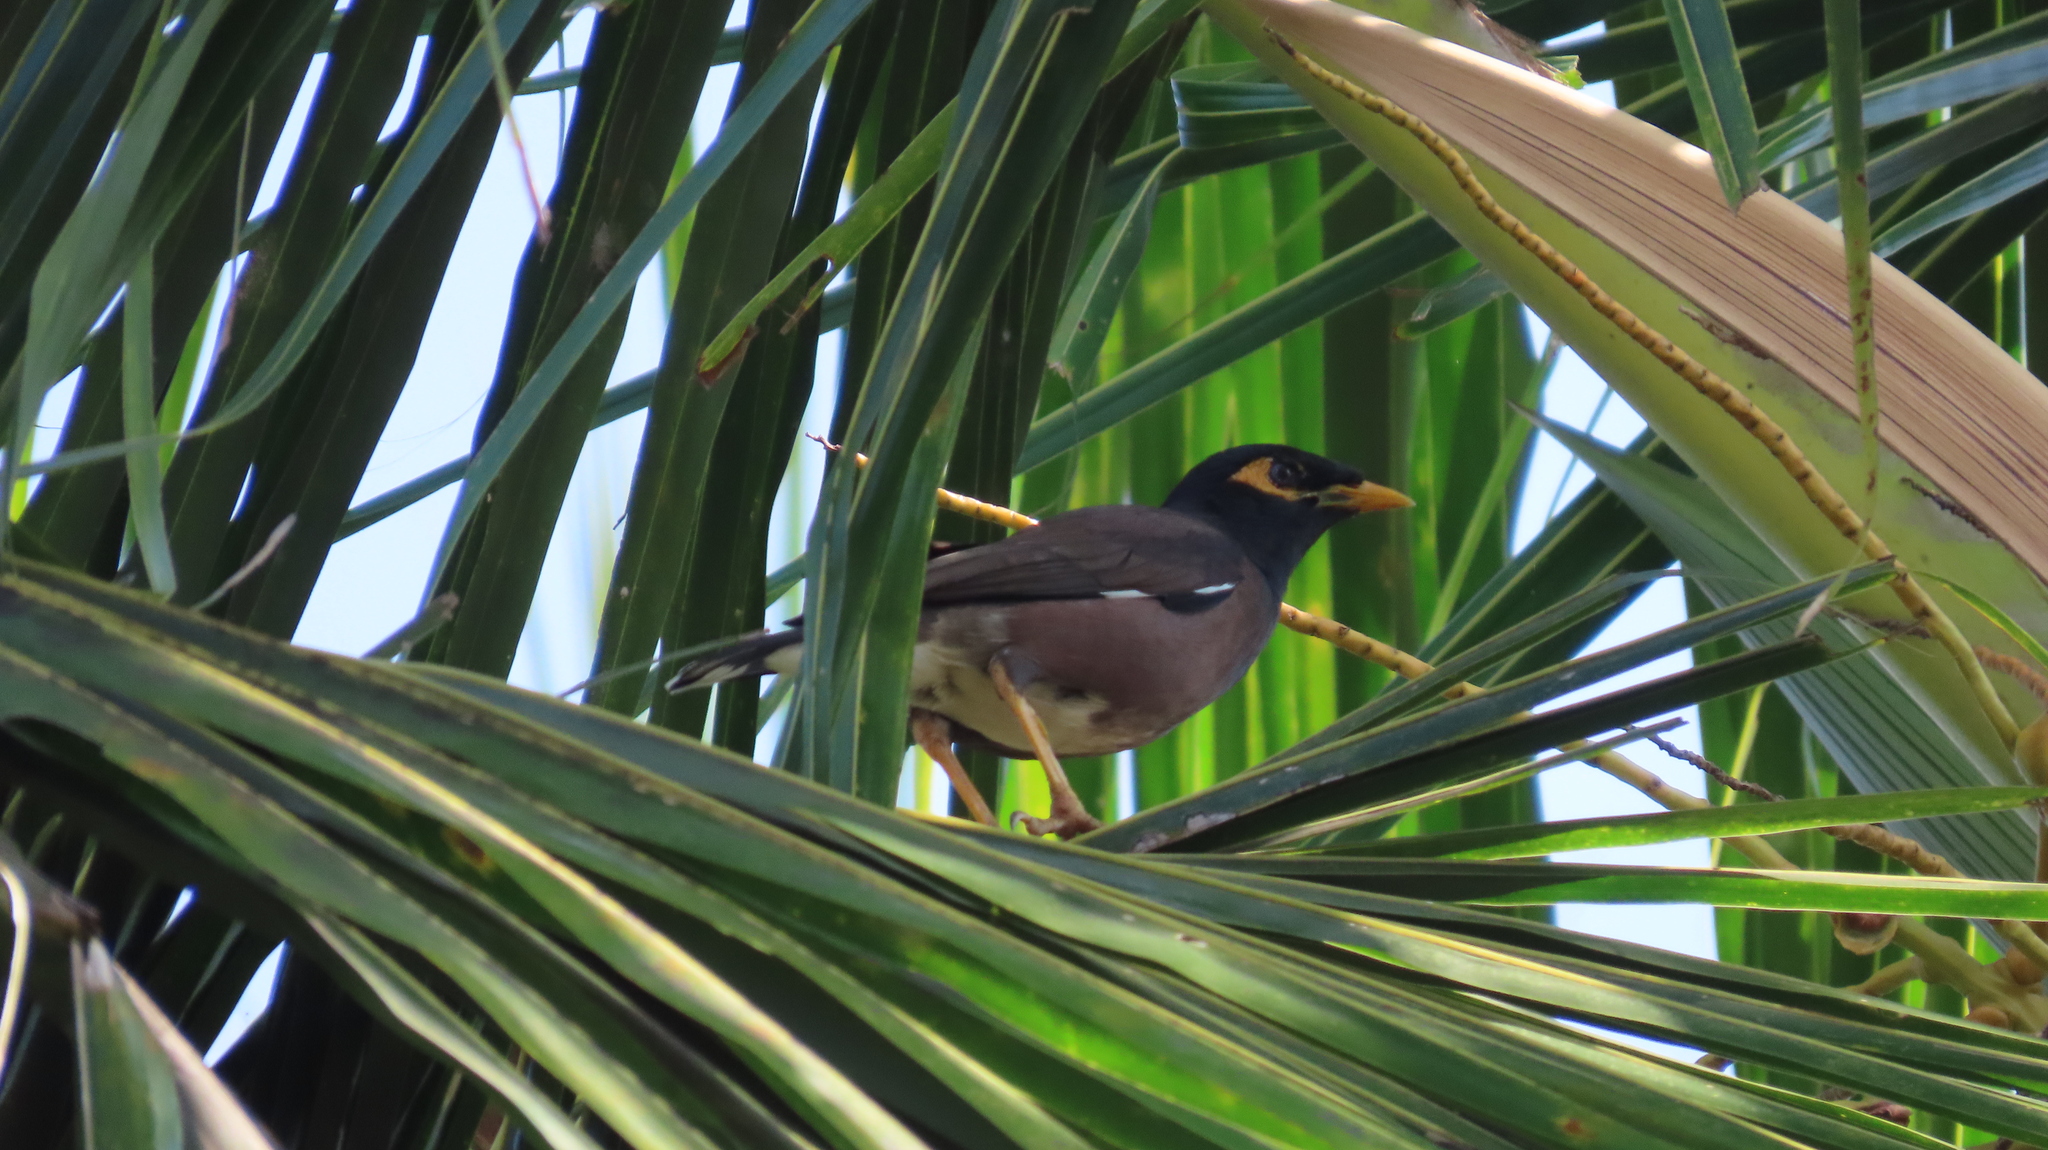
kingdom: Animalia
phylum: Chordata
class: Aves
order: Passeriformes
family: Sturnidae
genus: Acridotheres
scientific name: Acridotheres tristis
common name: Common myna
